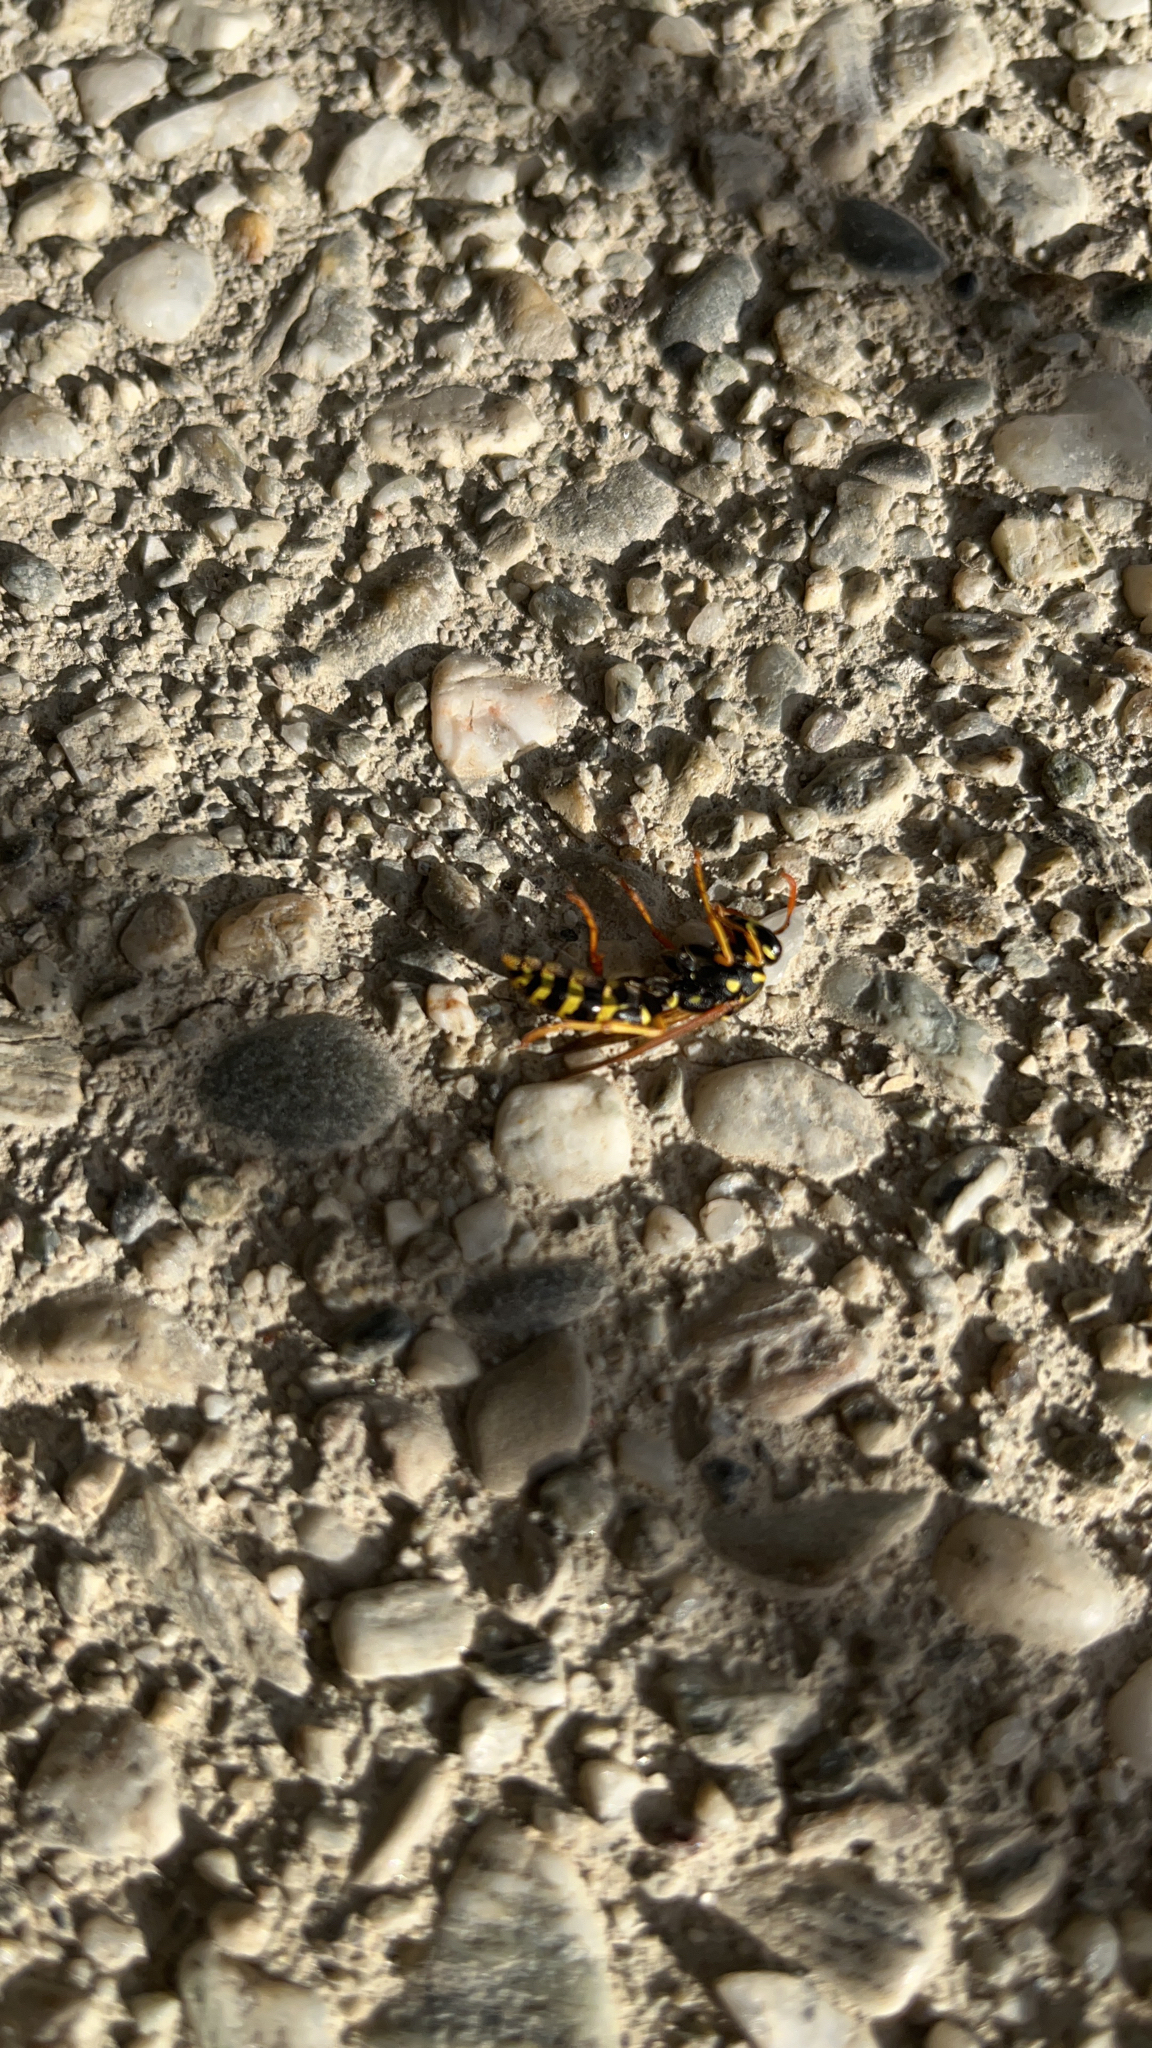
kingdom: Animalia
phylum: Arthropoda
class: Insecta
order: Hymenoptera
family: Eumenidae
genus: Polistes
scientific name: Polistes dominula
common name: Paper wasp
